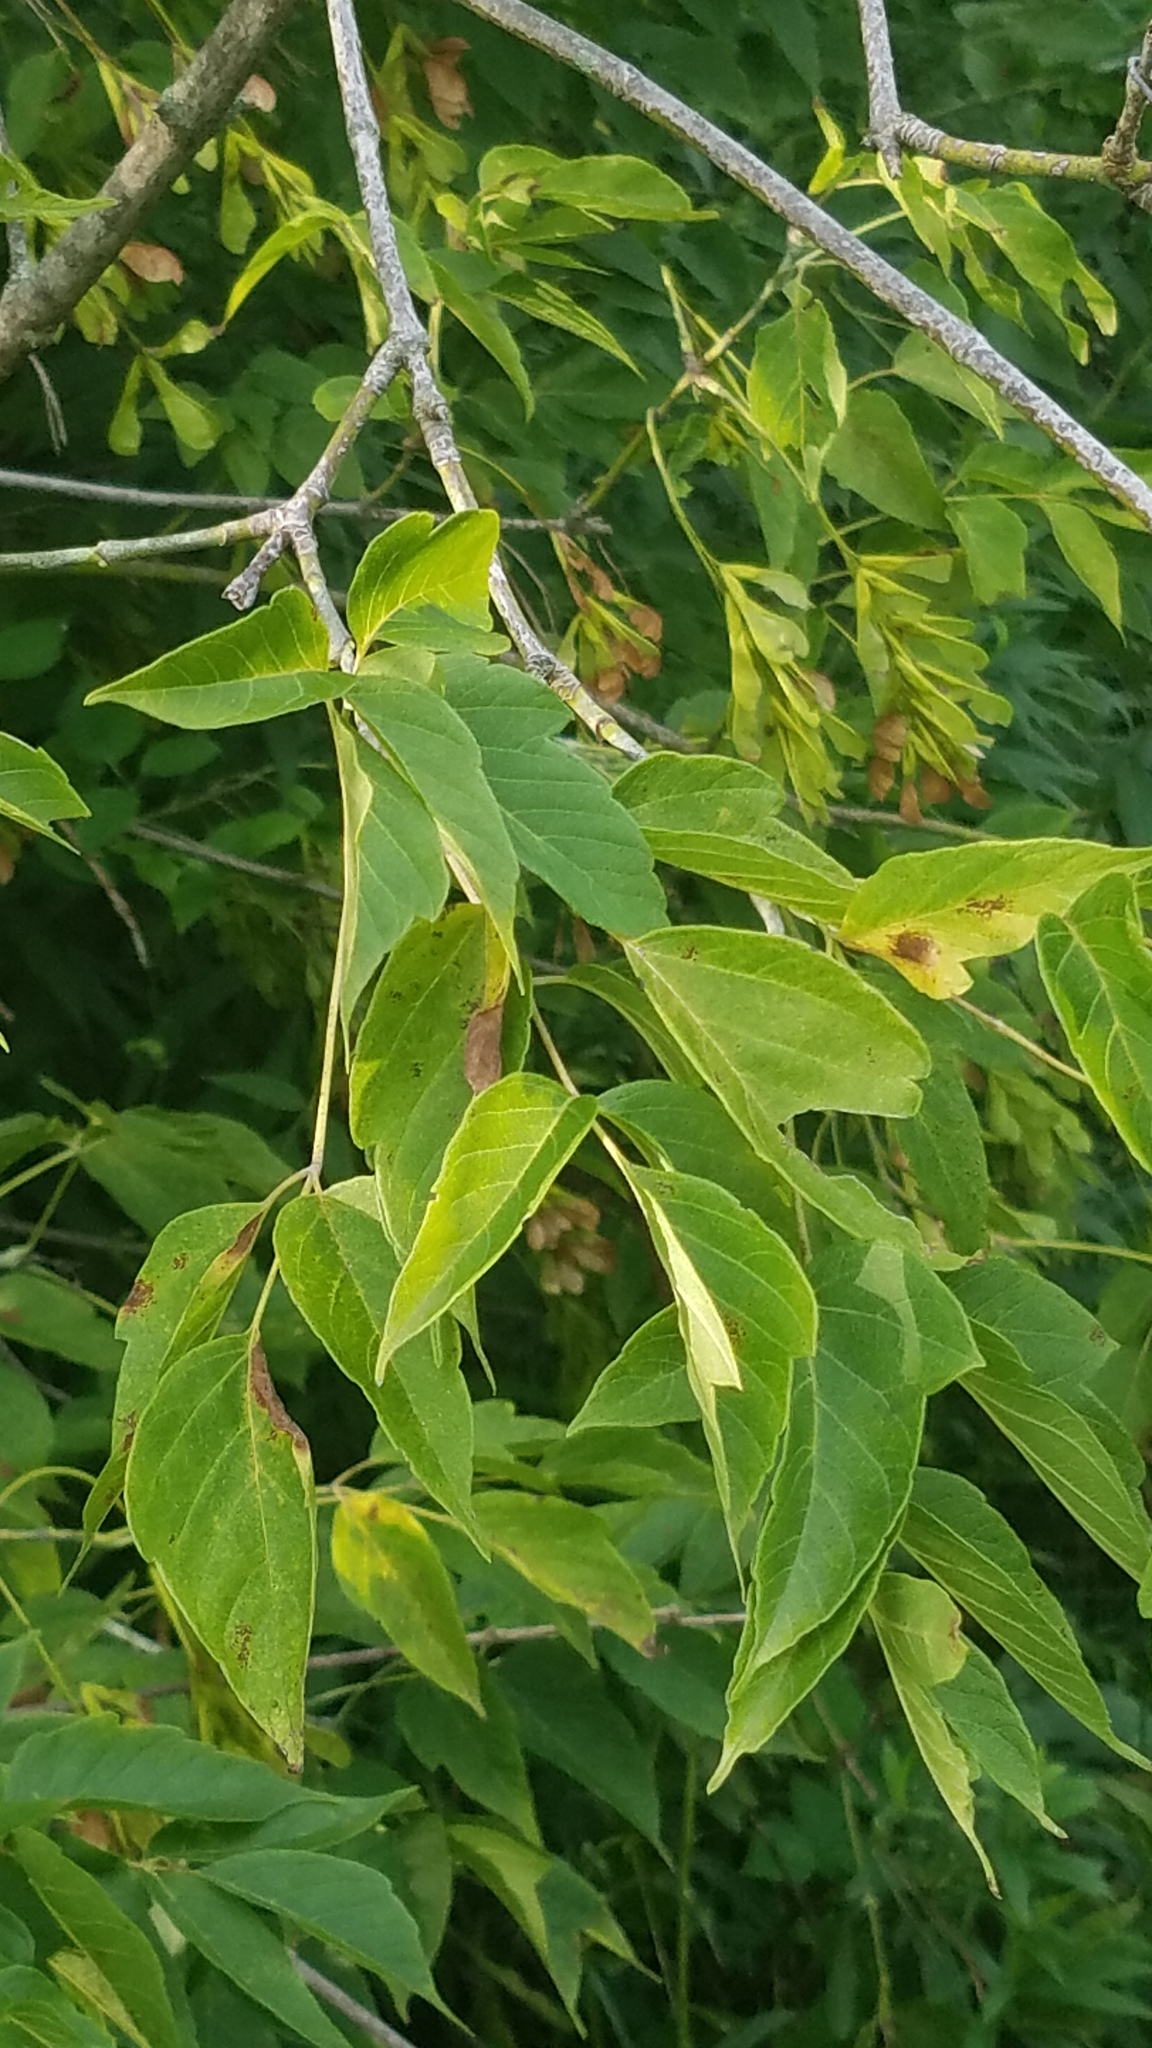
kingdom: Plantae
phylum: Tracheophyta
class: Magnoliopsida
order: Sapindales
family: Sapindaceae
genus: Acer
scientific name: Acer negundo
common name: Ashleaf maple
